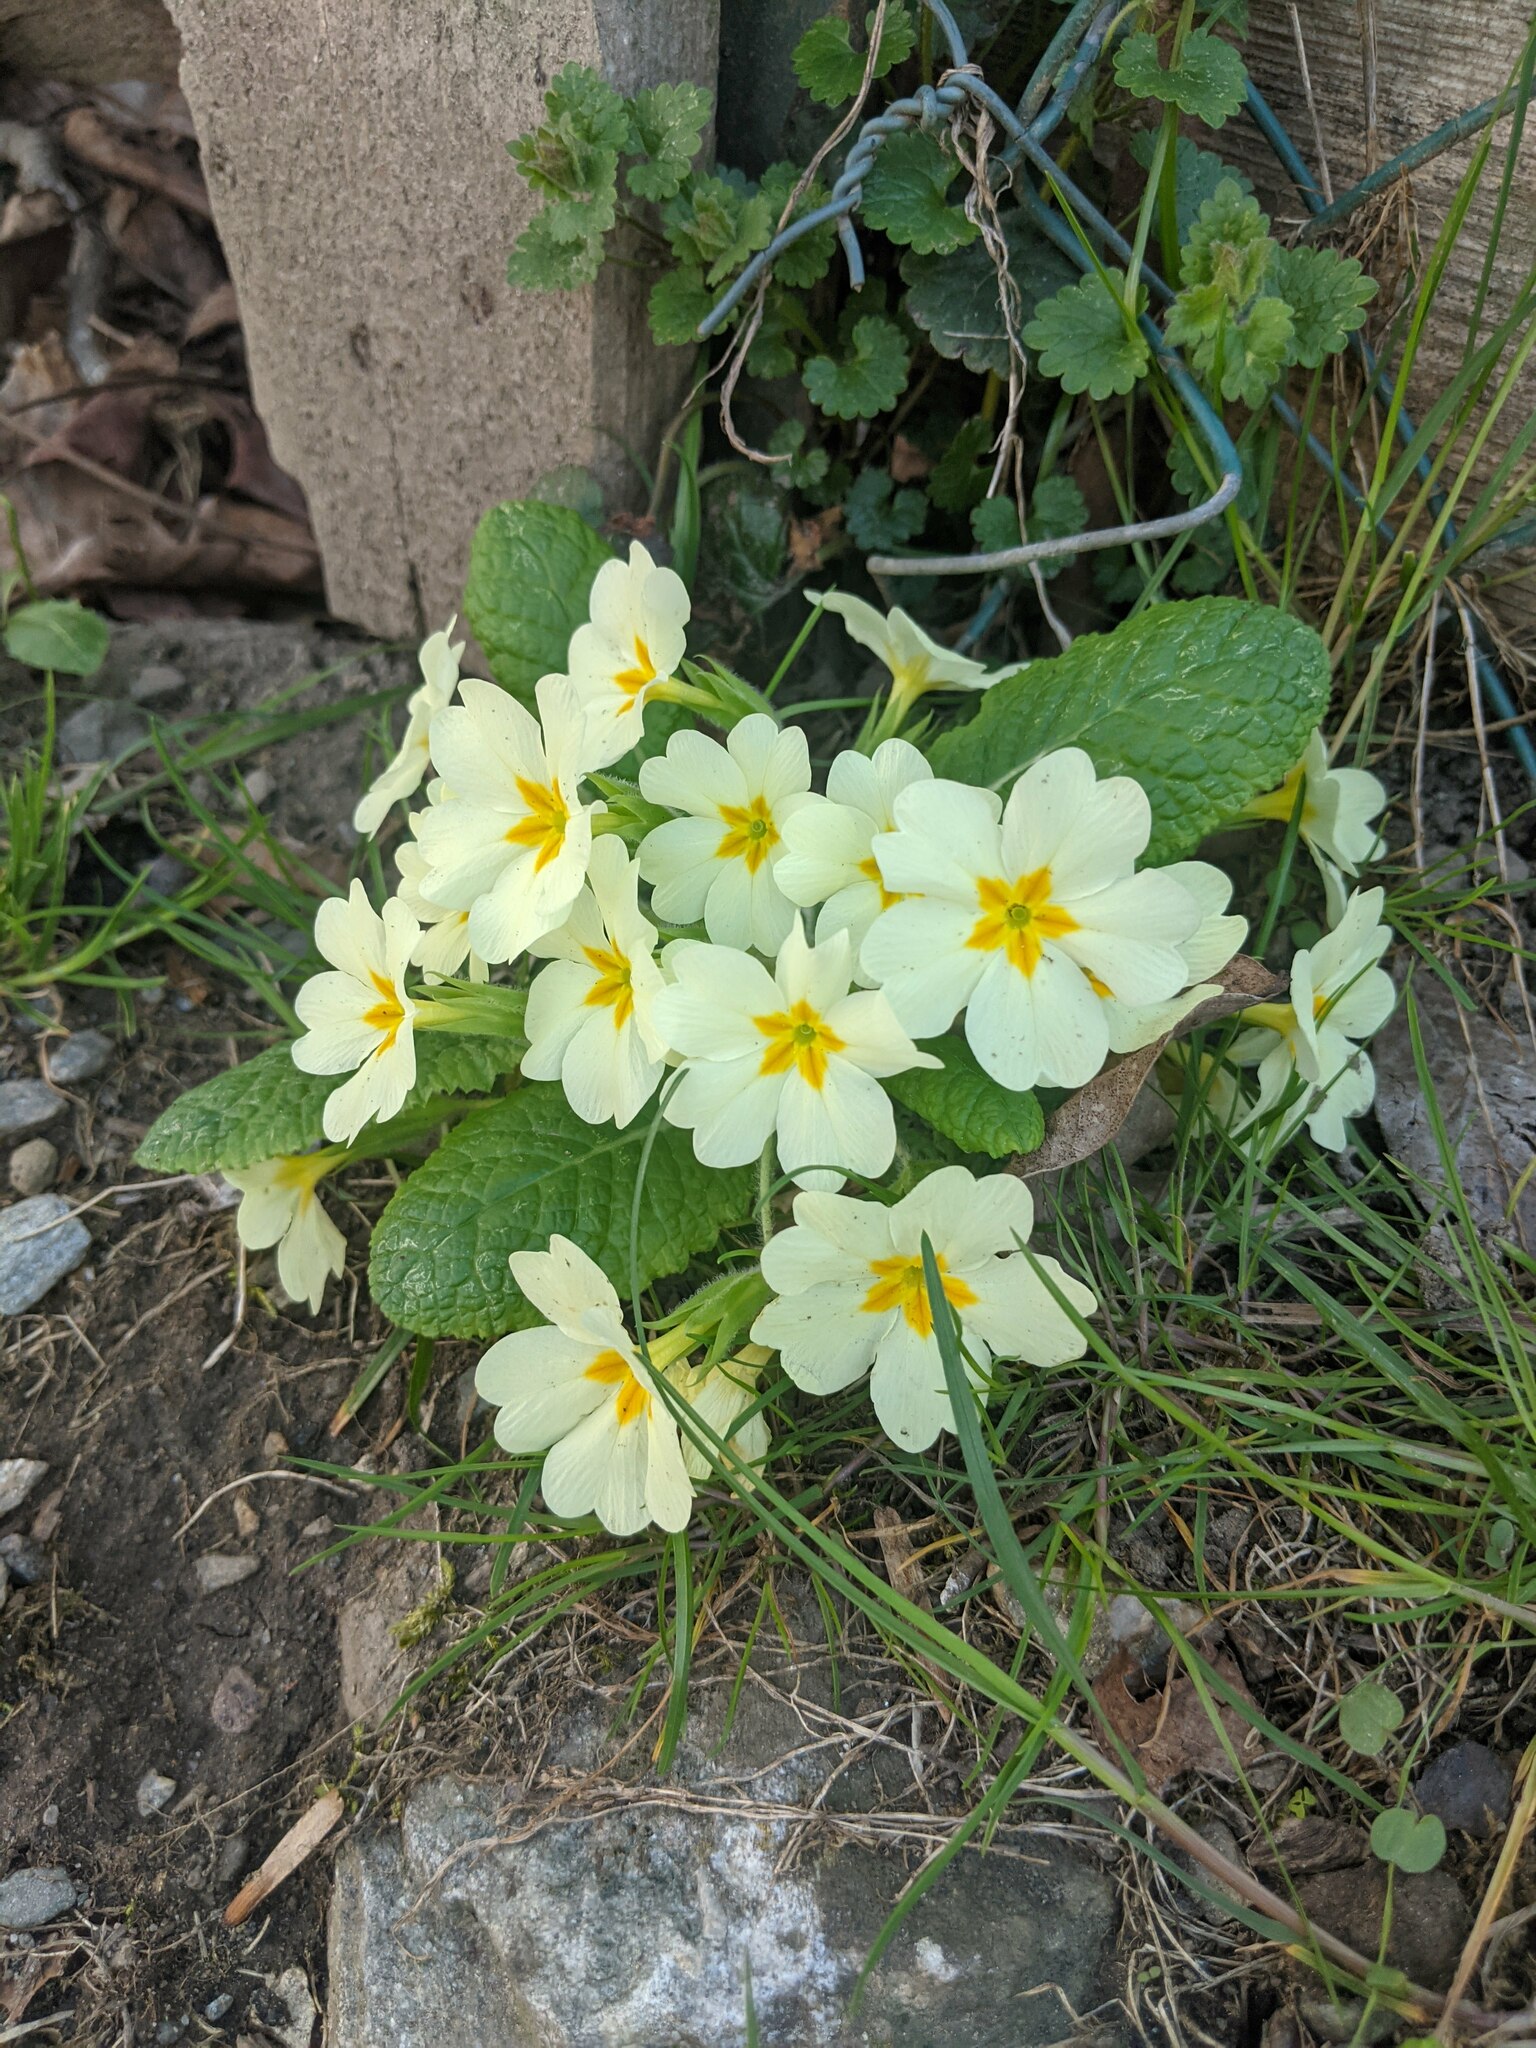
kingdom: Plantae
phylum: Tracheophyta
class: Magnoliopsida
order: Ericales
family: Primulaceae
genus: Primula
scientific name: Primula vulgaris
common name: Primrose
